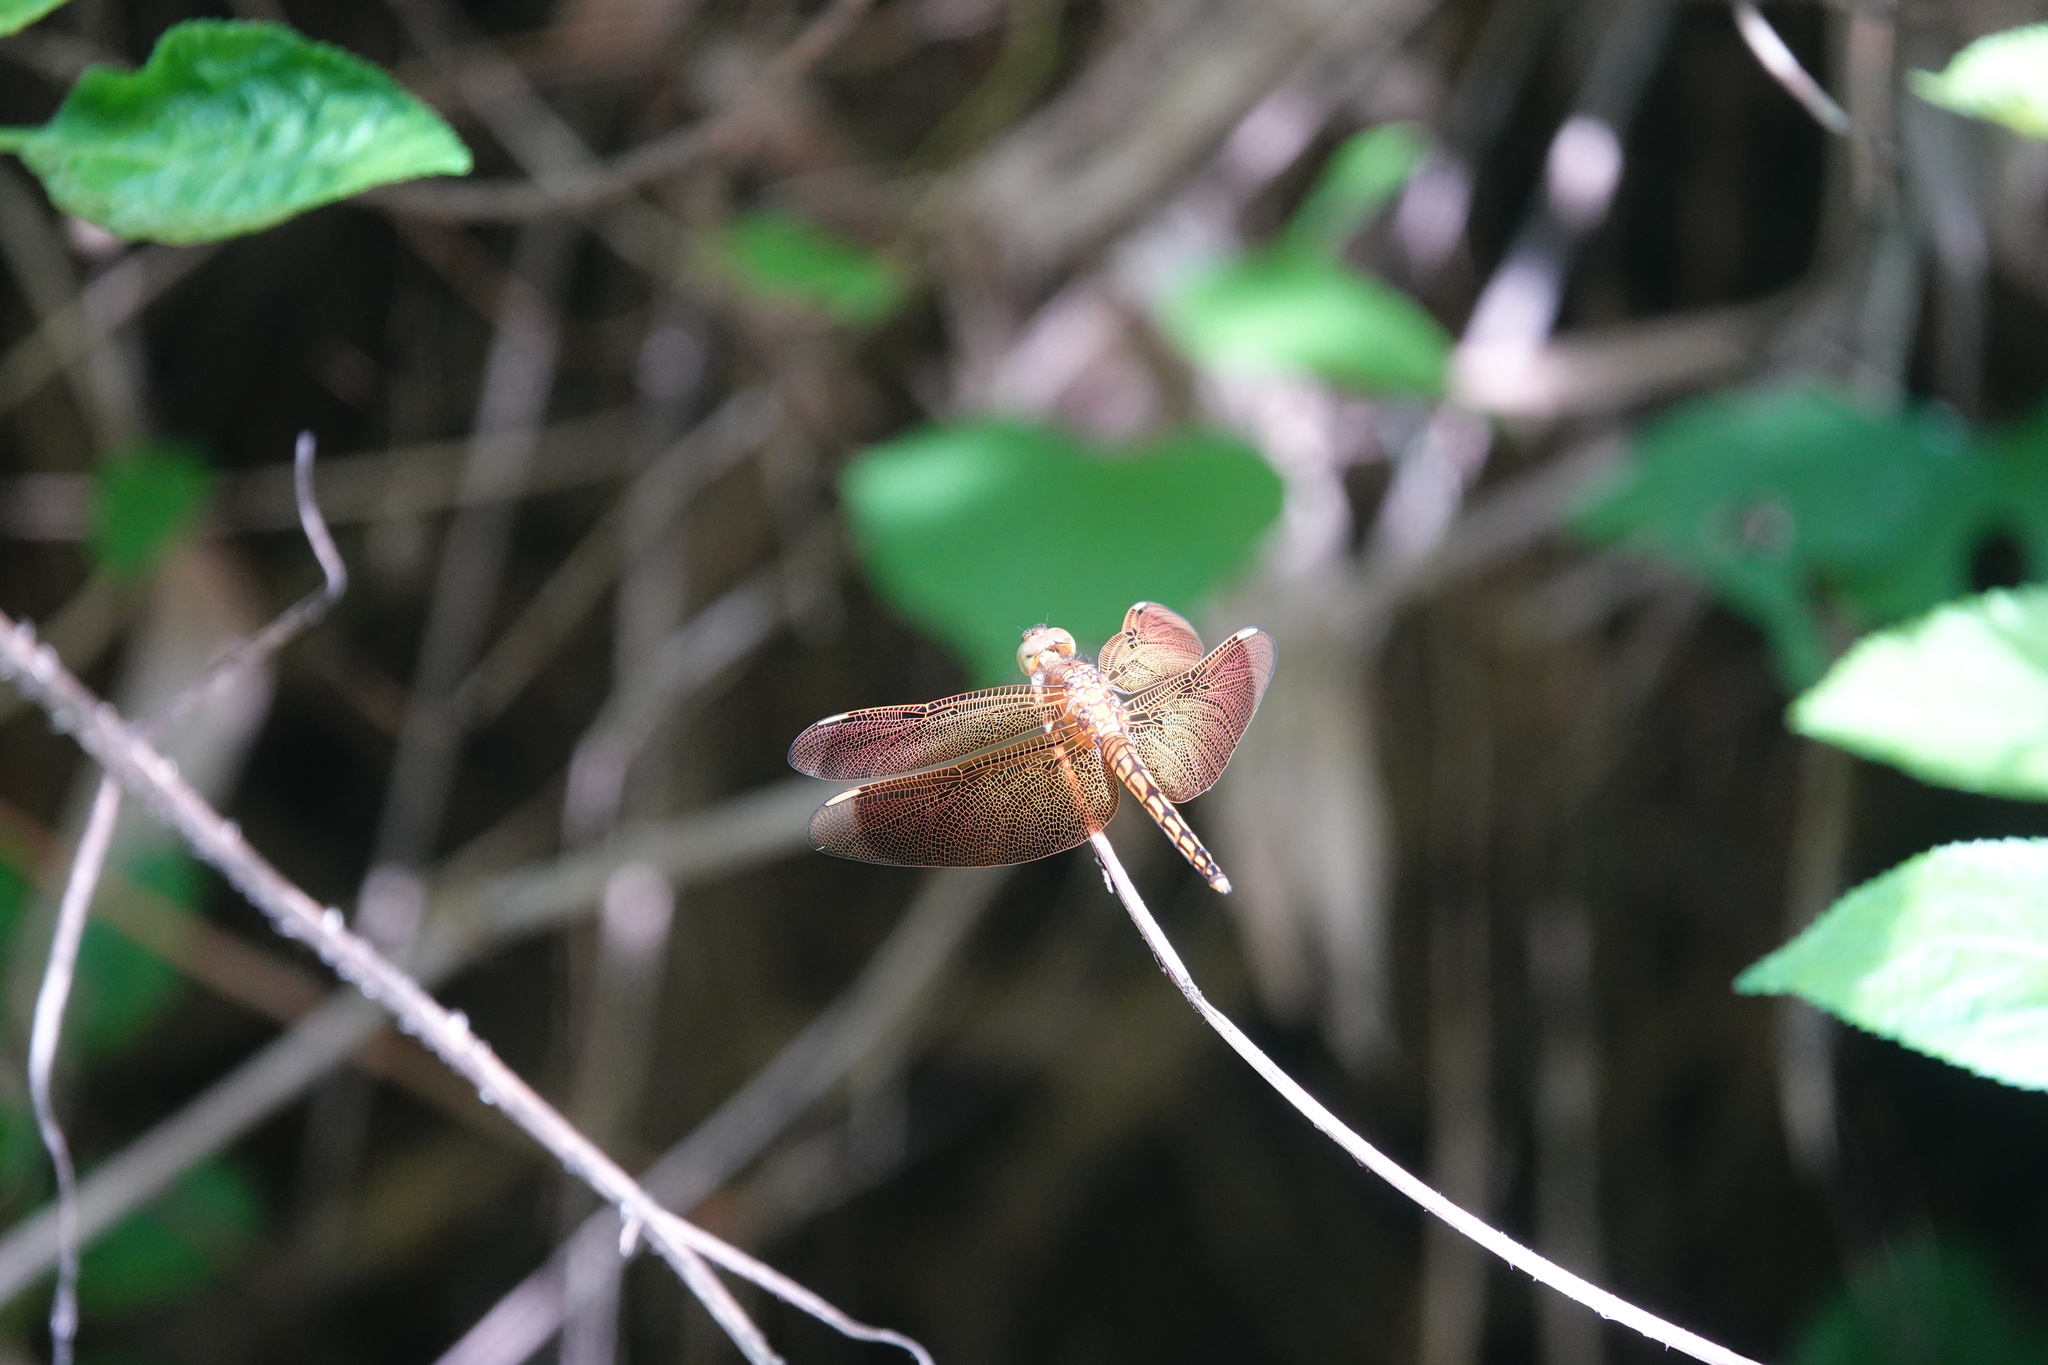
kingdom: Animalia
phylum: Arthropoda
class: Insecta
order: Odonata
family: Libellulidae
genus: Neurothemis
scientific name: Neurothemis taiwanensis
